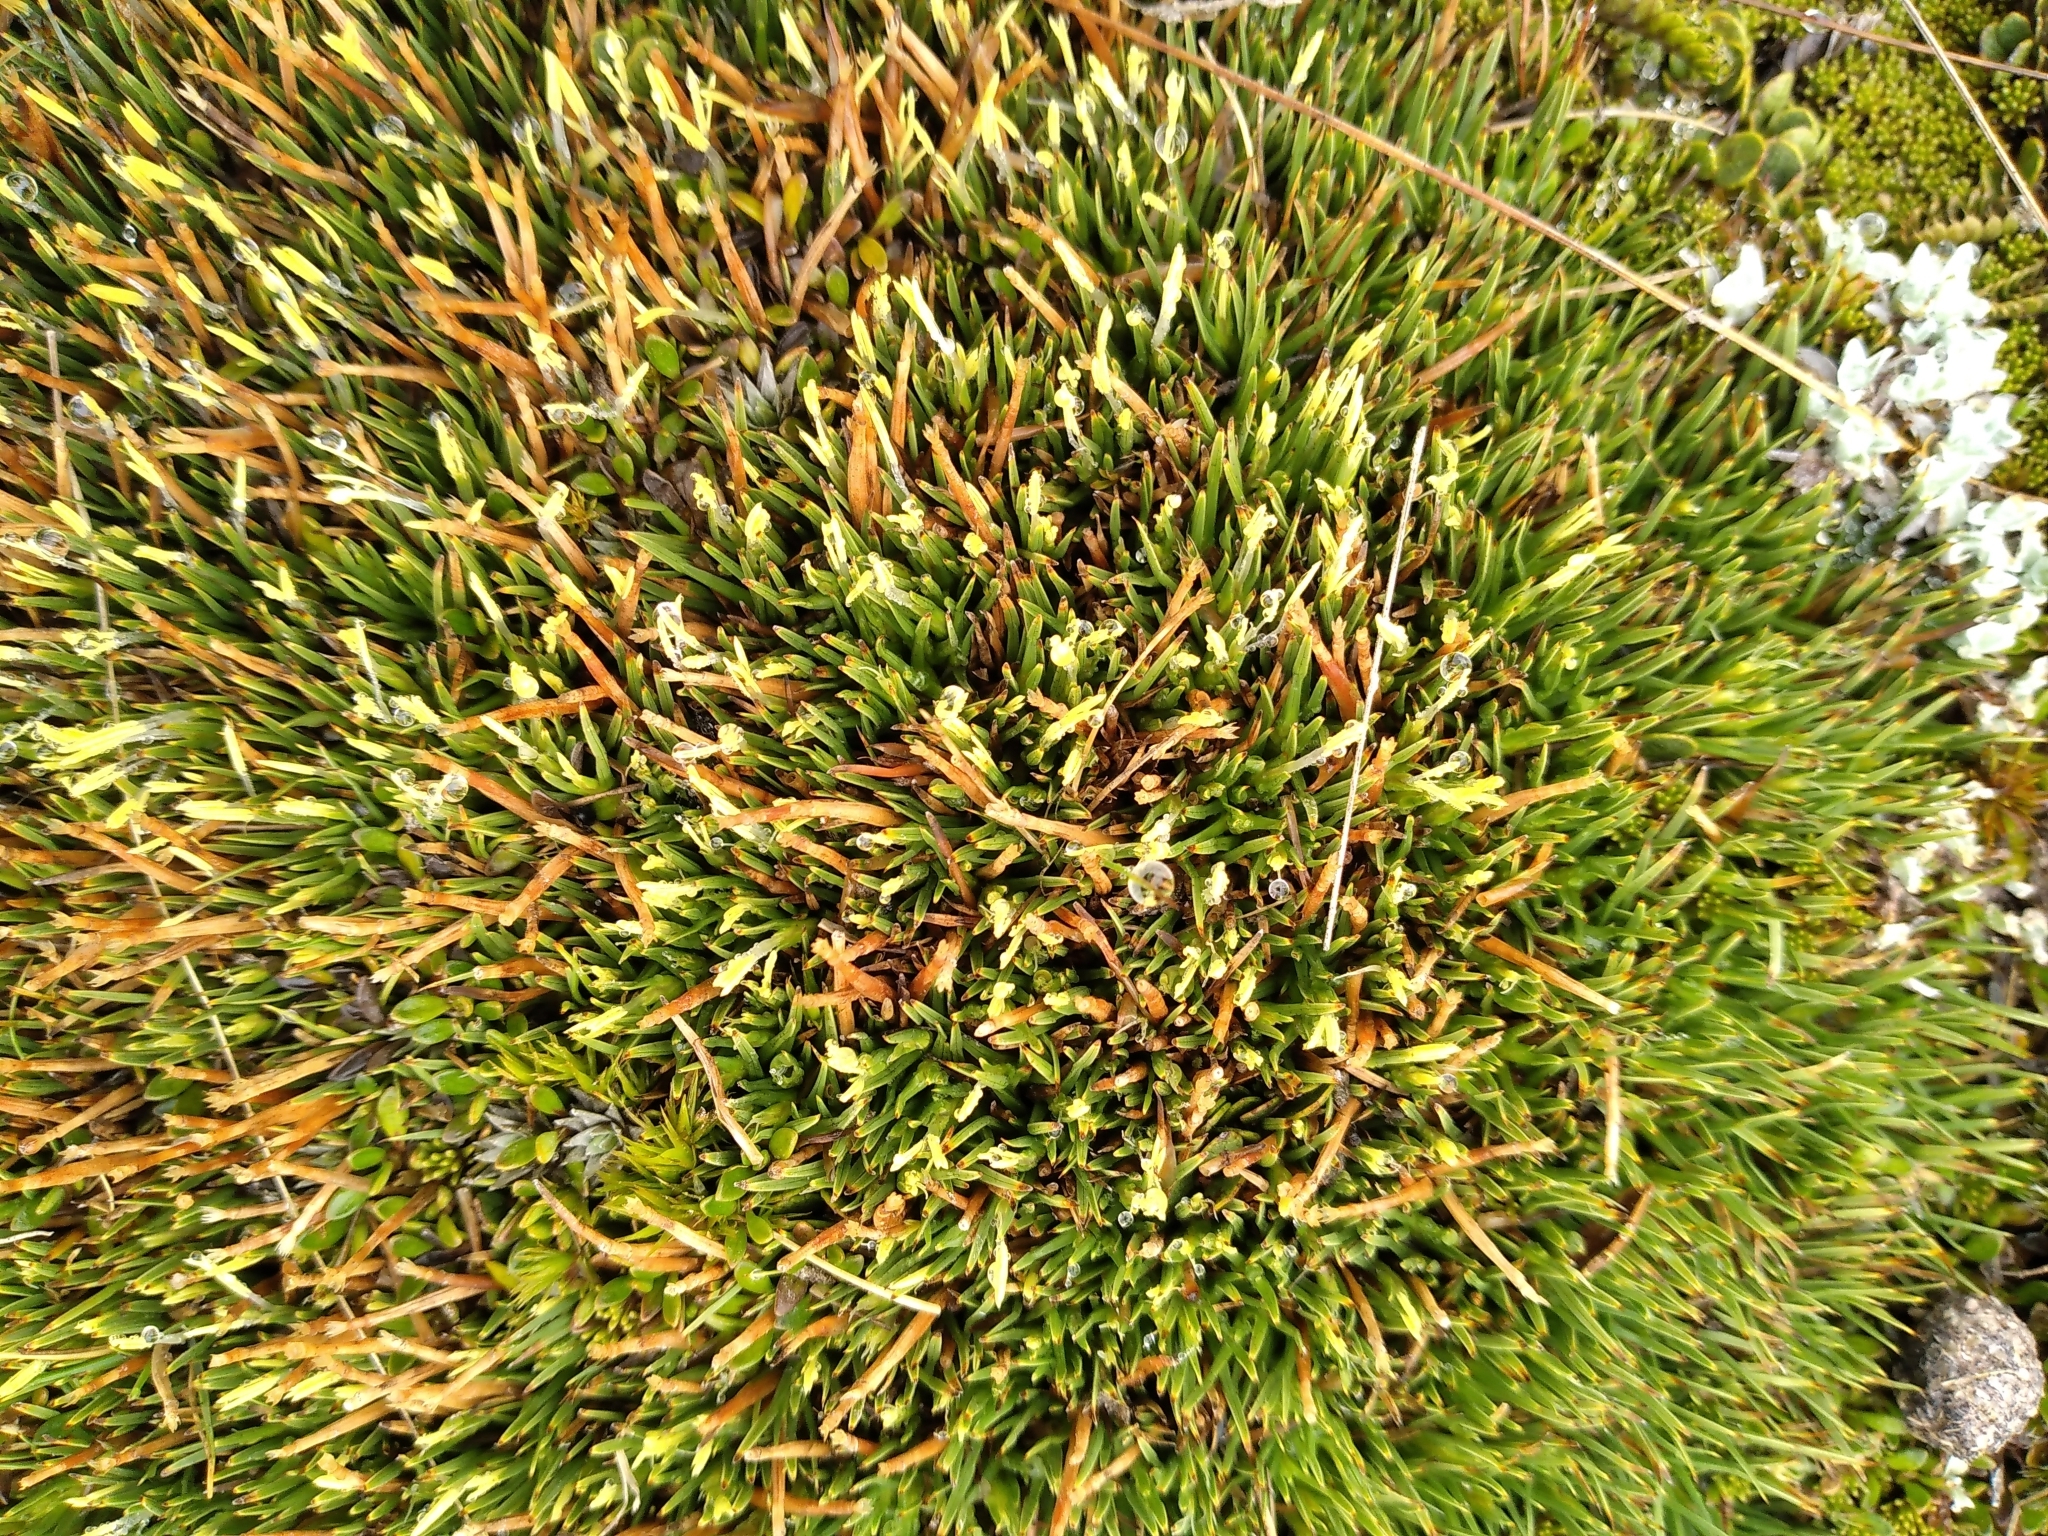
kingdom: Plantae
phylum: Tracheophyta
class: Liliopsida
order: Poales
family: Cyperaceae
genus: Oreobolus
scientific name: Oreobolus pectinatus
